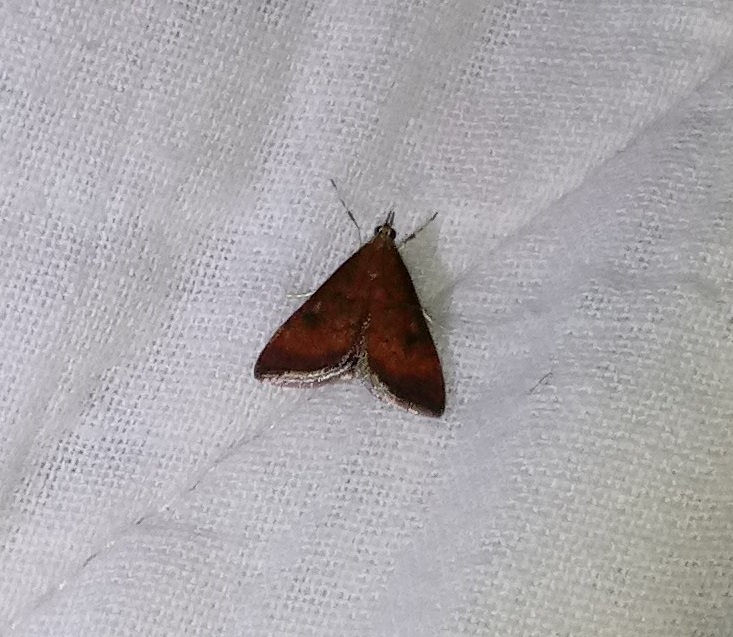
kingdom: Animalia
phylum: Arthropoda
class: Insecta
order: Lepidoptera
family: Crambidae
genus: Pyrausta
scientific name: Pyrausta rubricalis
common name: Variable reddish pyrausta
